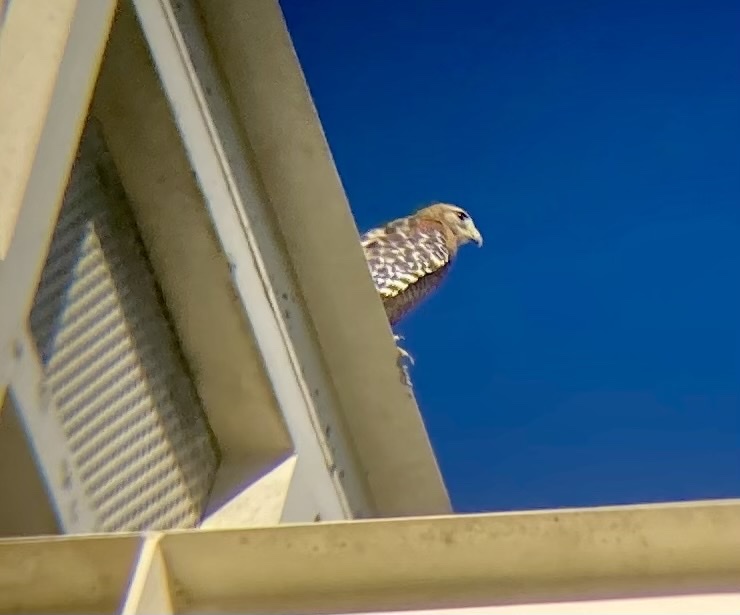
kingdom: Animalia
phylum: Chordata
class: Aves
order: Accipitriformes
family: Accipitridae
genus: Buteo
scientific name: Buteo lineatus
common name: Red-shouldered hawk
